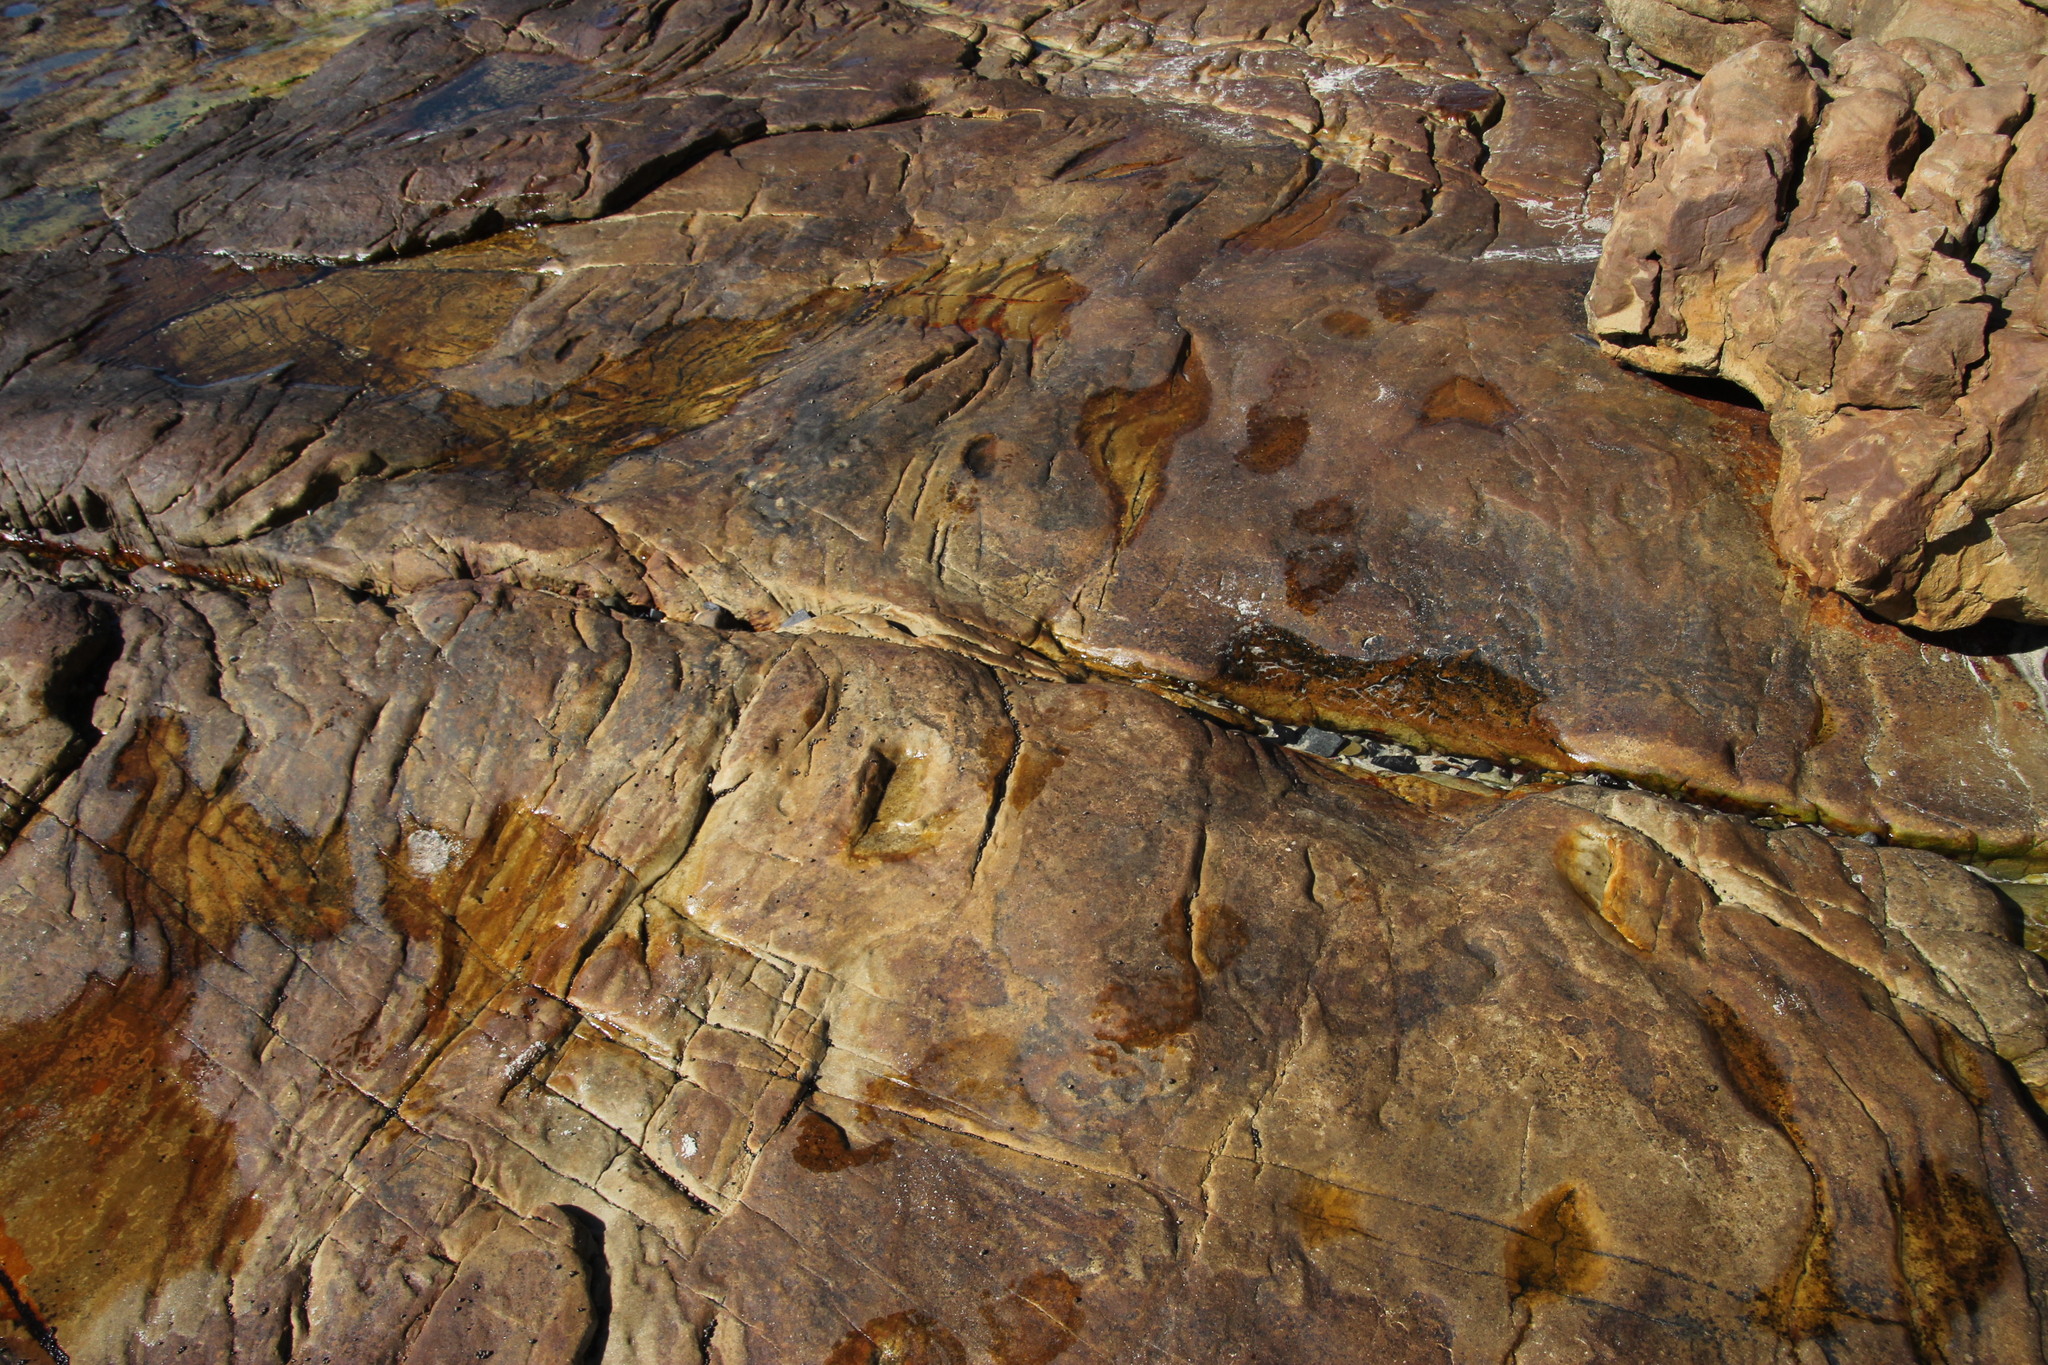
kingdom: Animalia
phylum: Mollusca
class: Gastropoda
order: Littorinimorpha
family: Littorinidae
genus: Afrolittorina
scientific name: Afrolittorina knysnaensis
